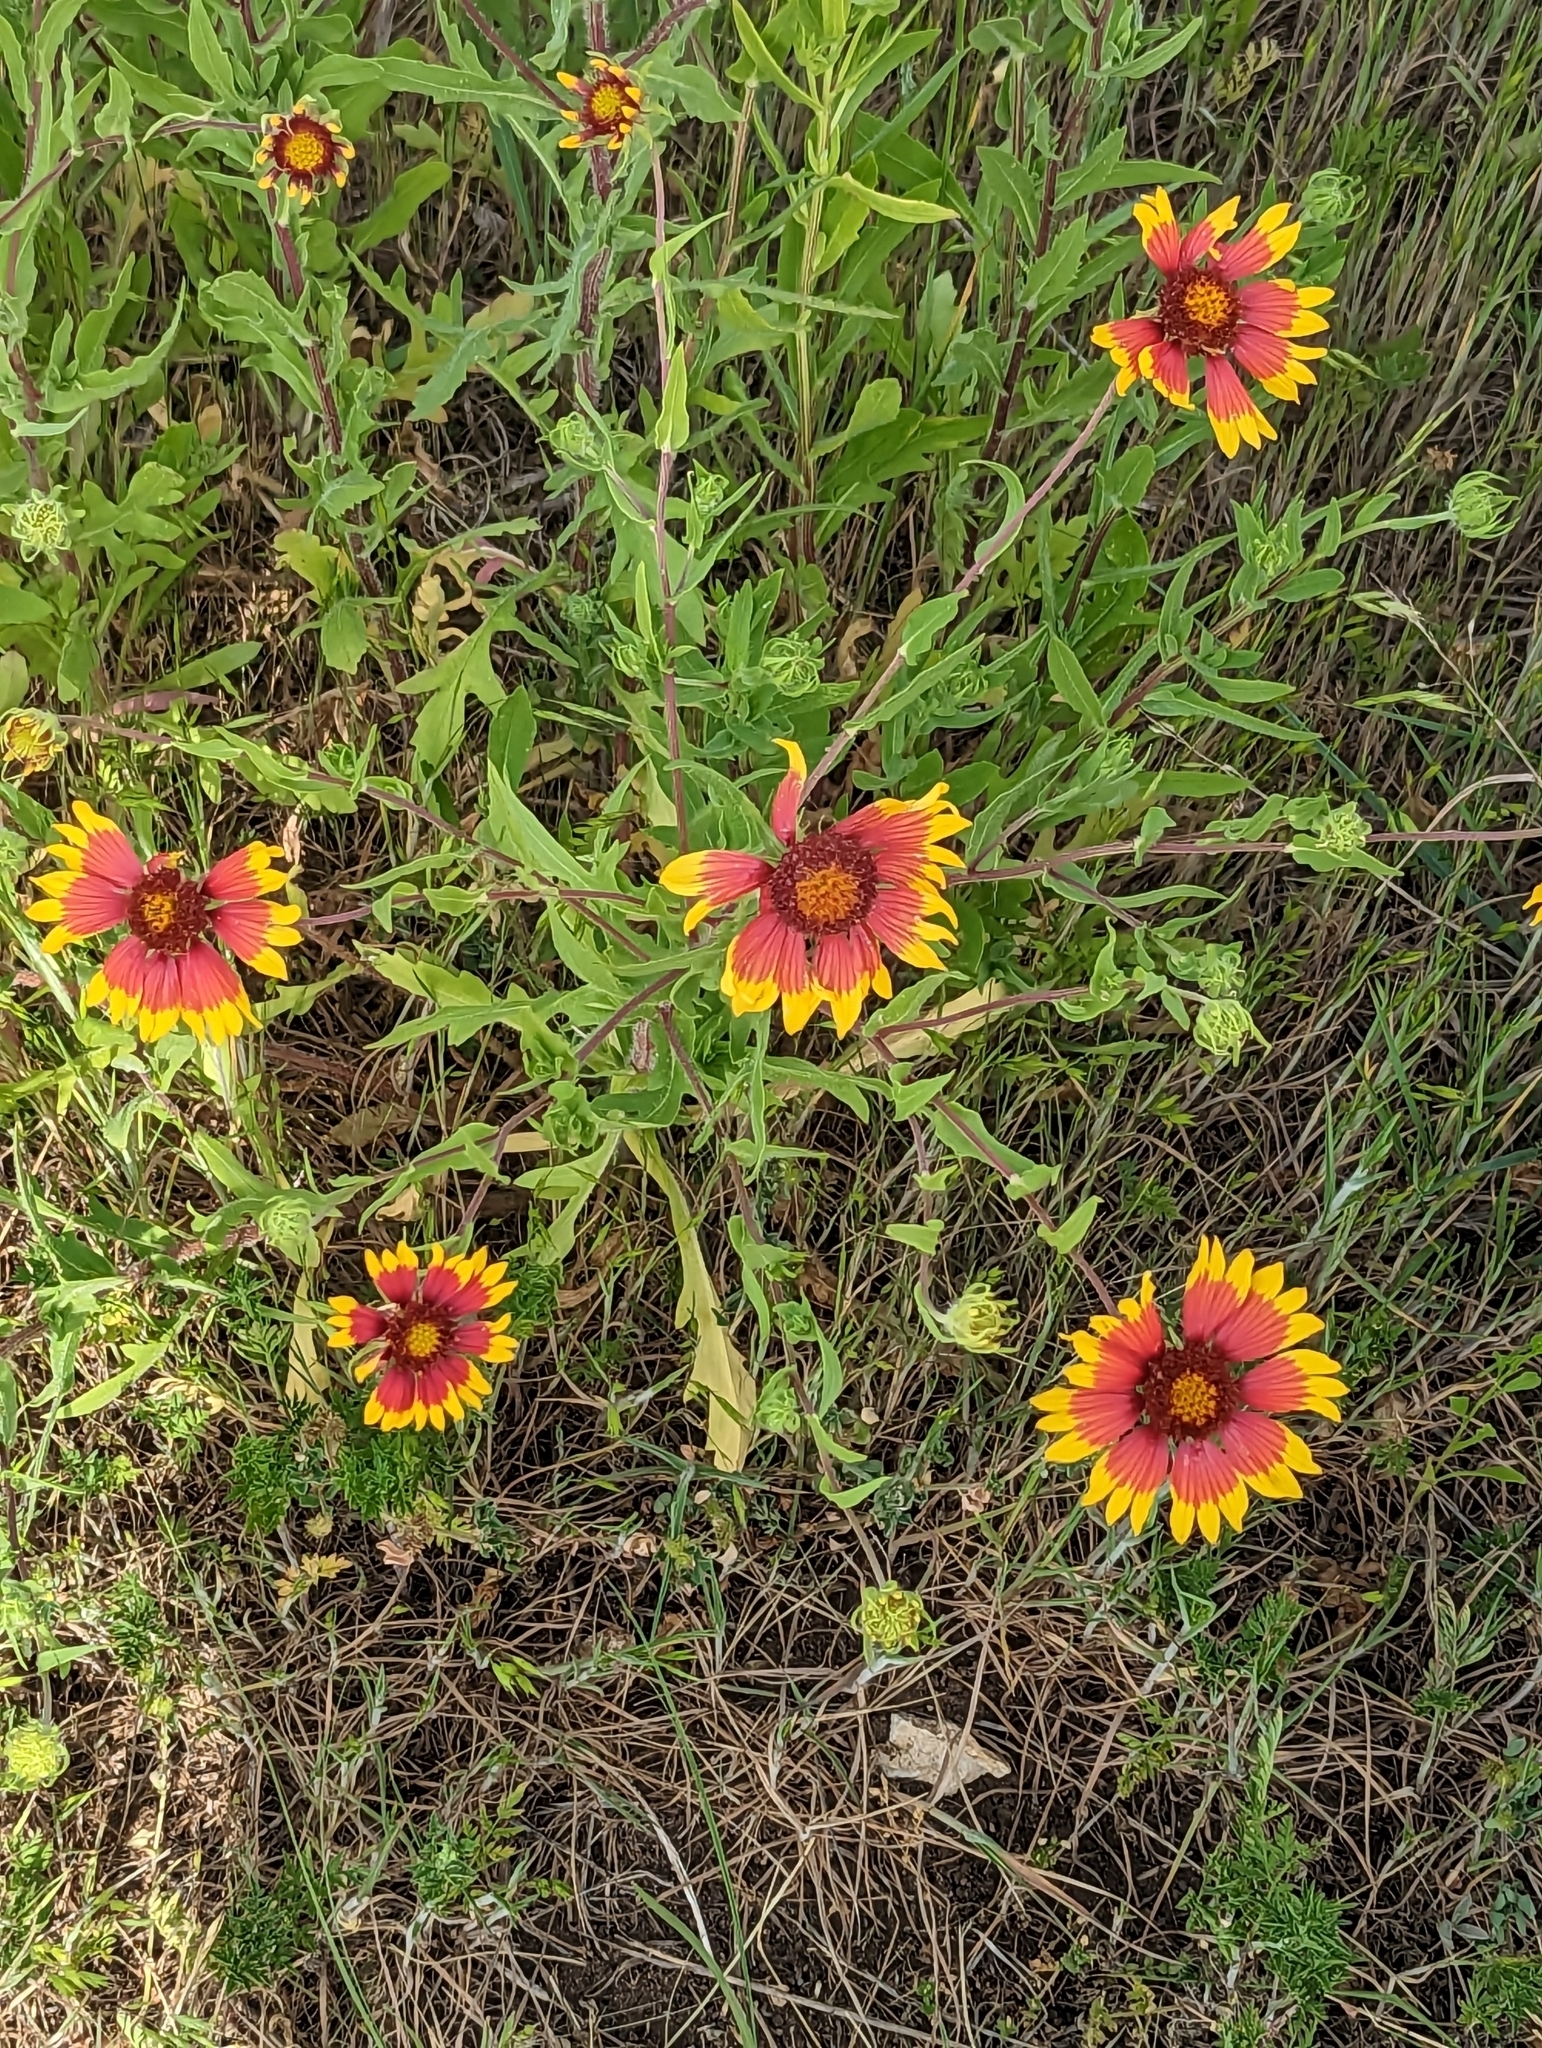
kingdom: Plantae
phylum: Tracheophyta
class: Magnoliopsida
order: Asterales
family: Asteraceae
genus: Gaillardia
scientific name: Gaillardia pulchella
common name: Firewheel
